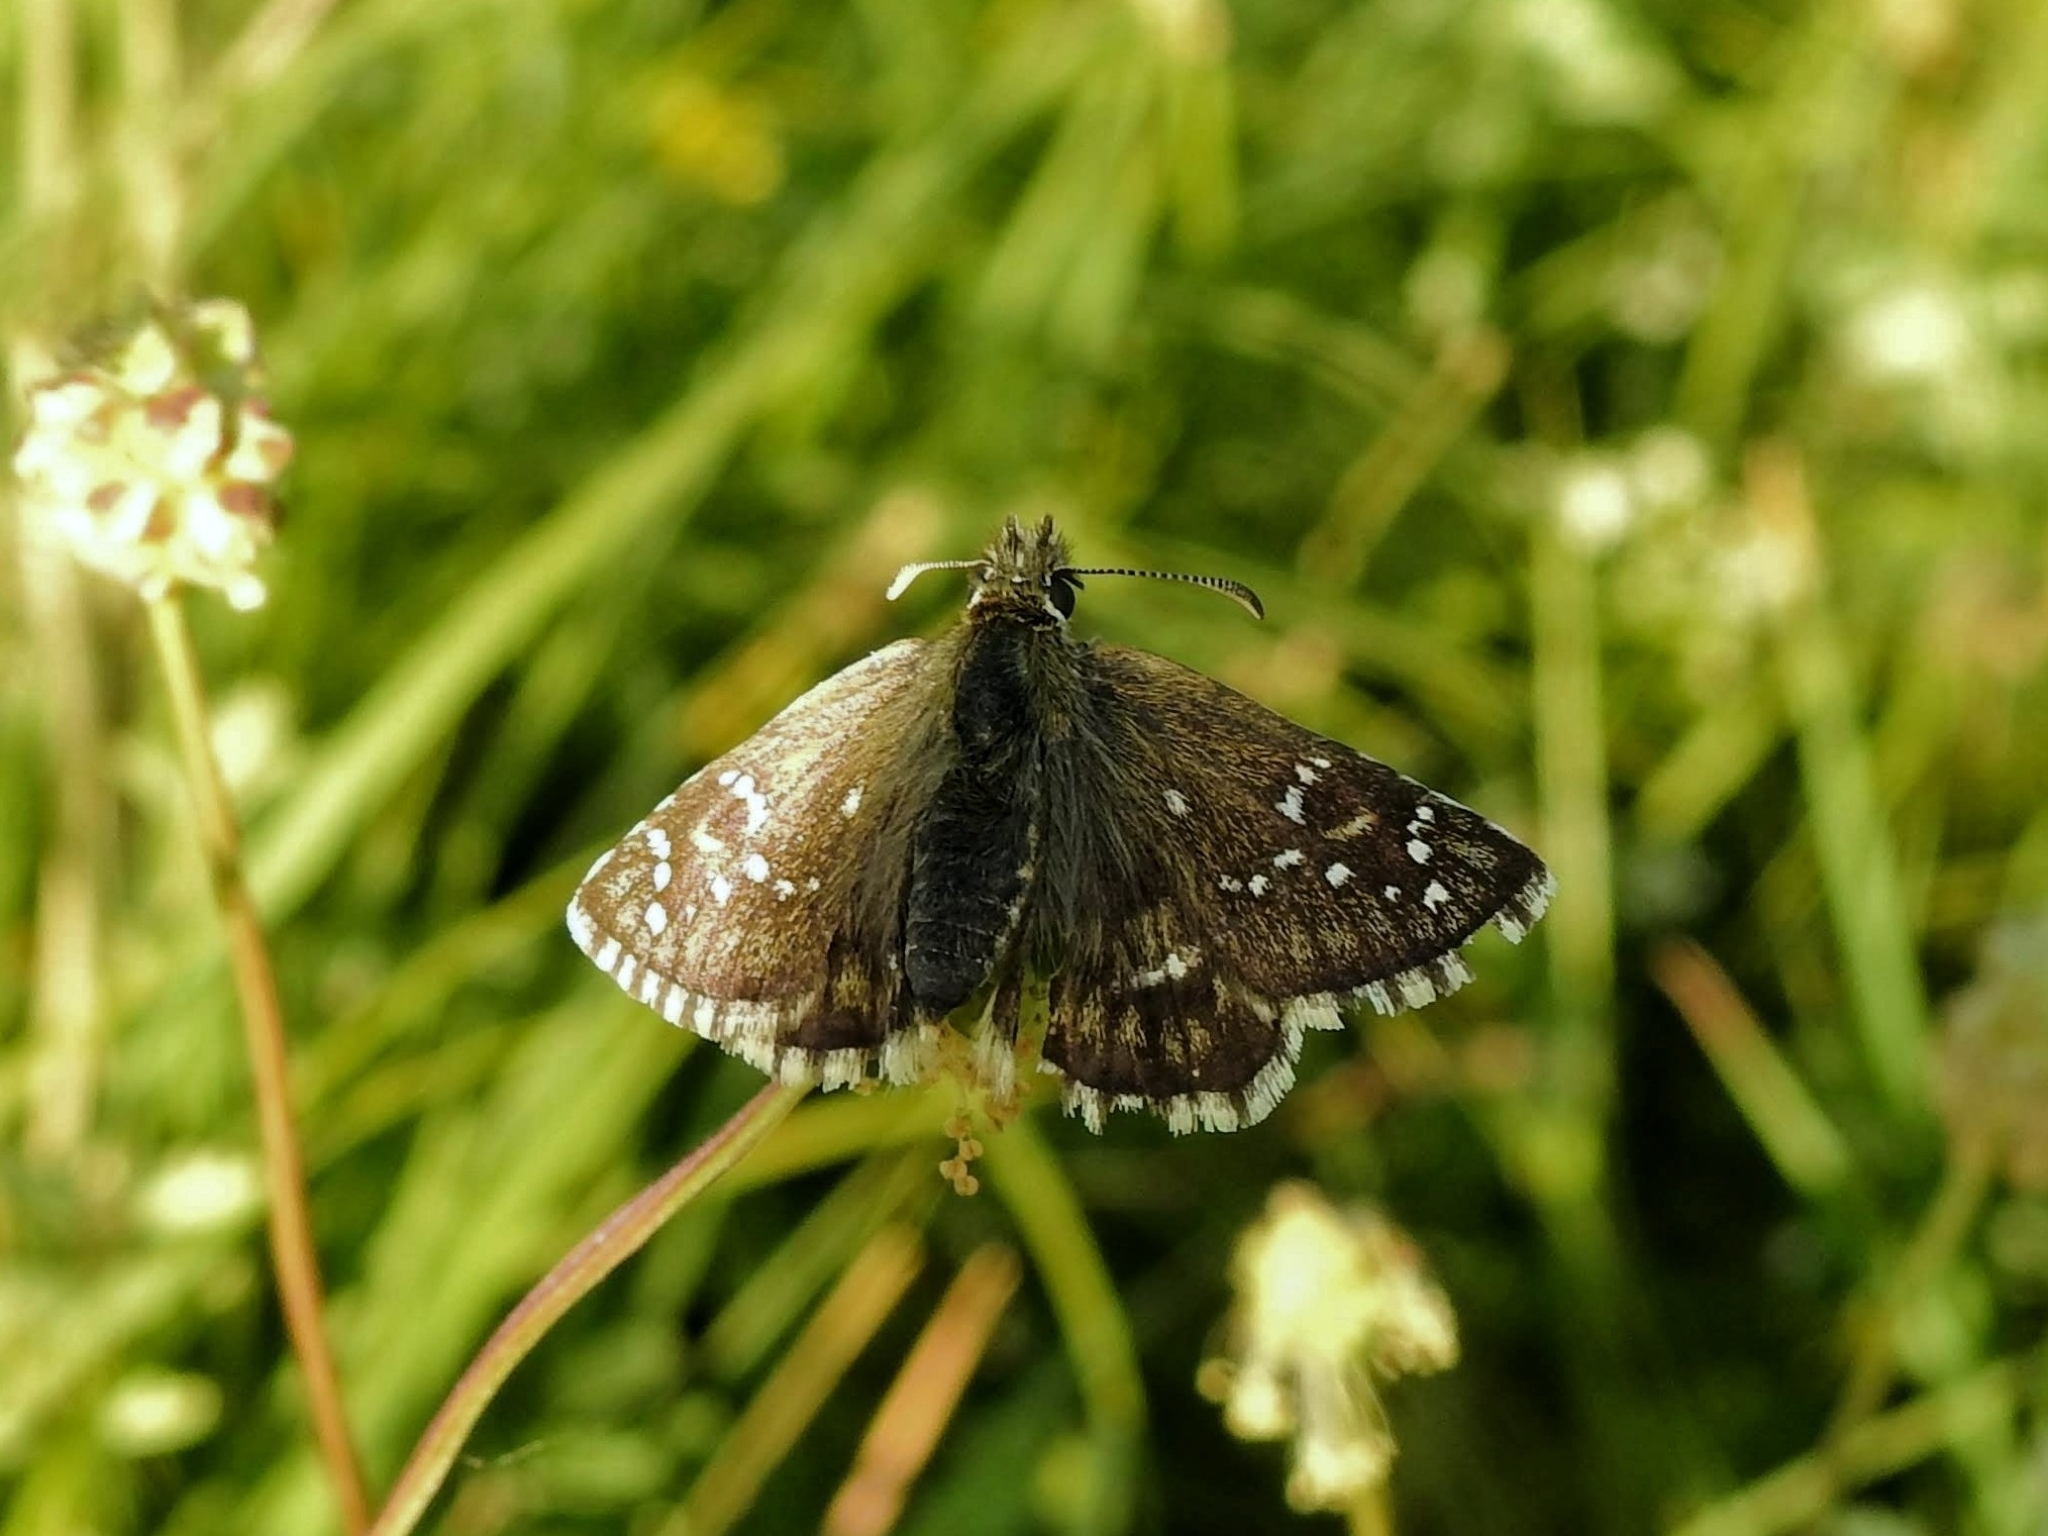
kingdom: Animalia
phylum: Arthropoda
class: Insecta
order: Lepidoptera
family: Hesperiidae
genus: Pyrgus
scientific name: Pyrgus serratulae
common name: Olive skipper
